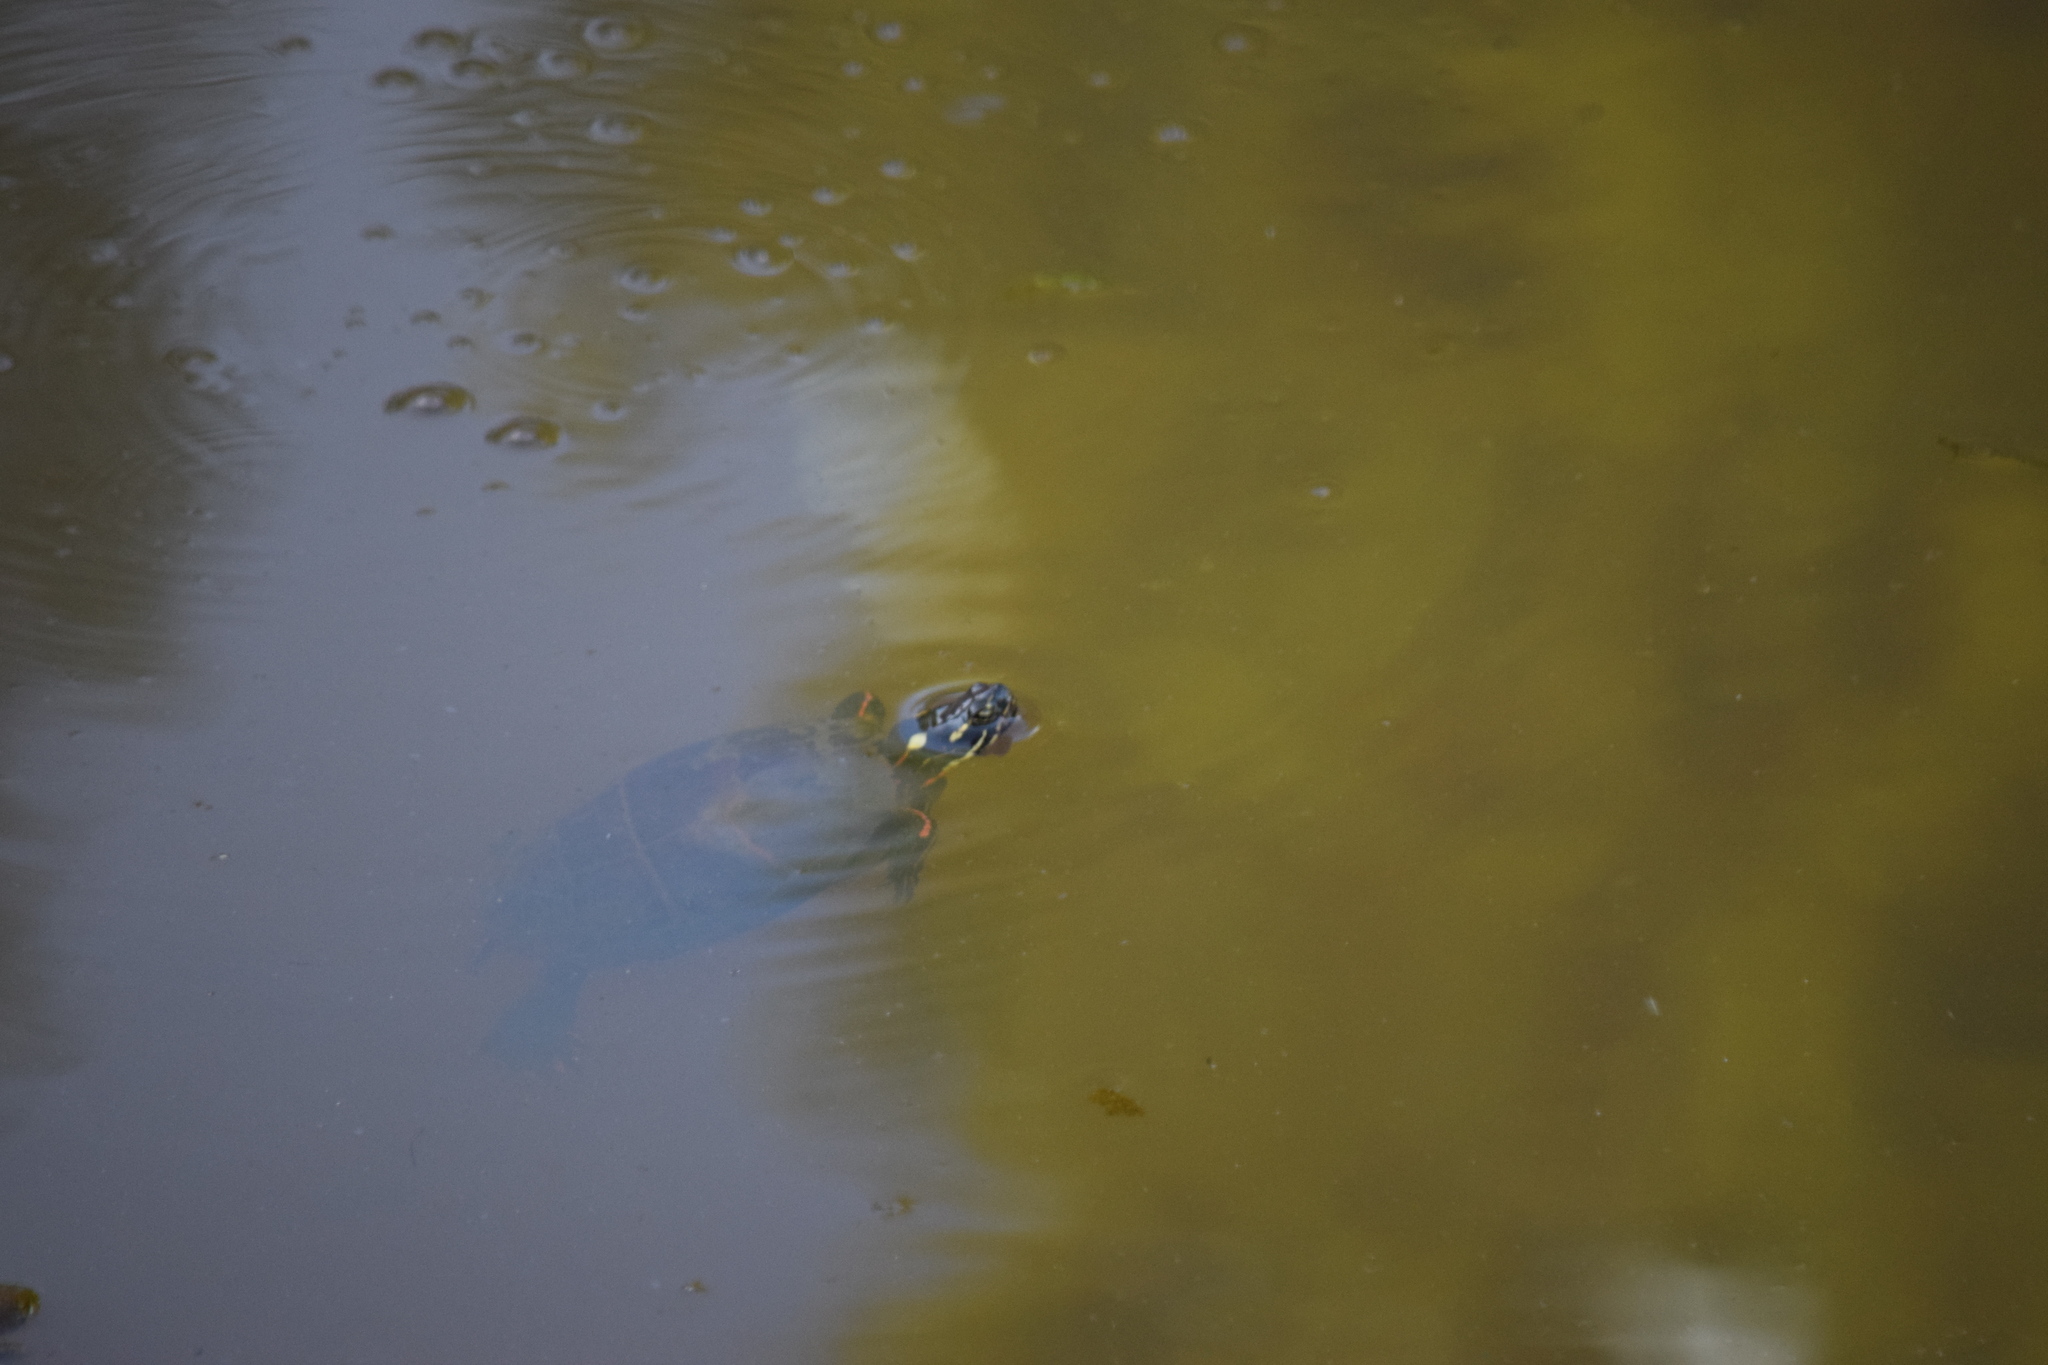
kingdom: Animalia
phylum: Chordata
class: Testudines
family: Emydidae
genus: Chrysemys
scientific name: Chrysemys picta
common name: Painted turtle
